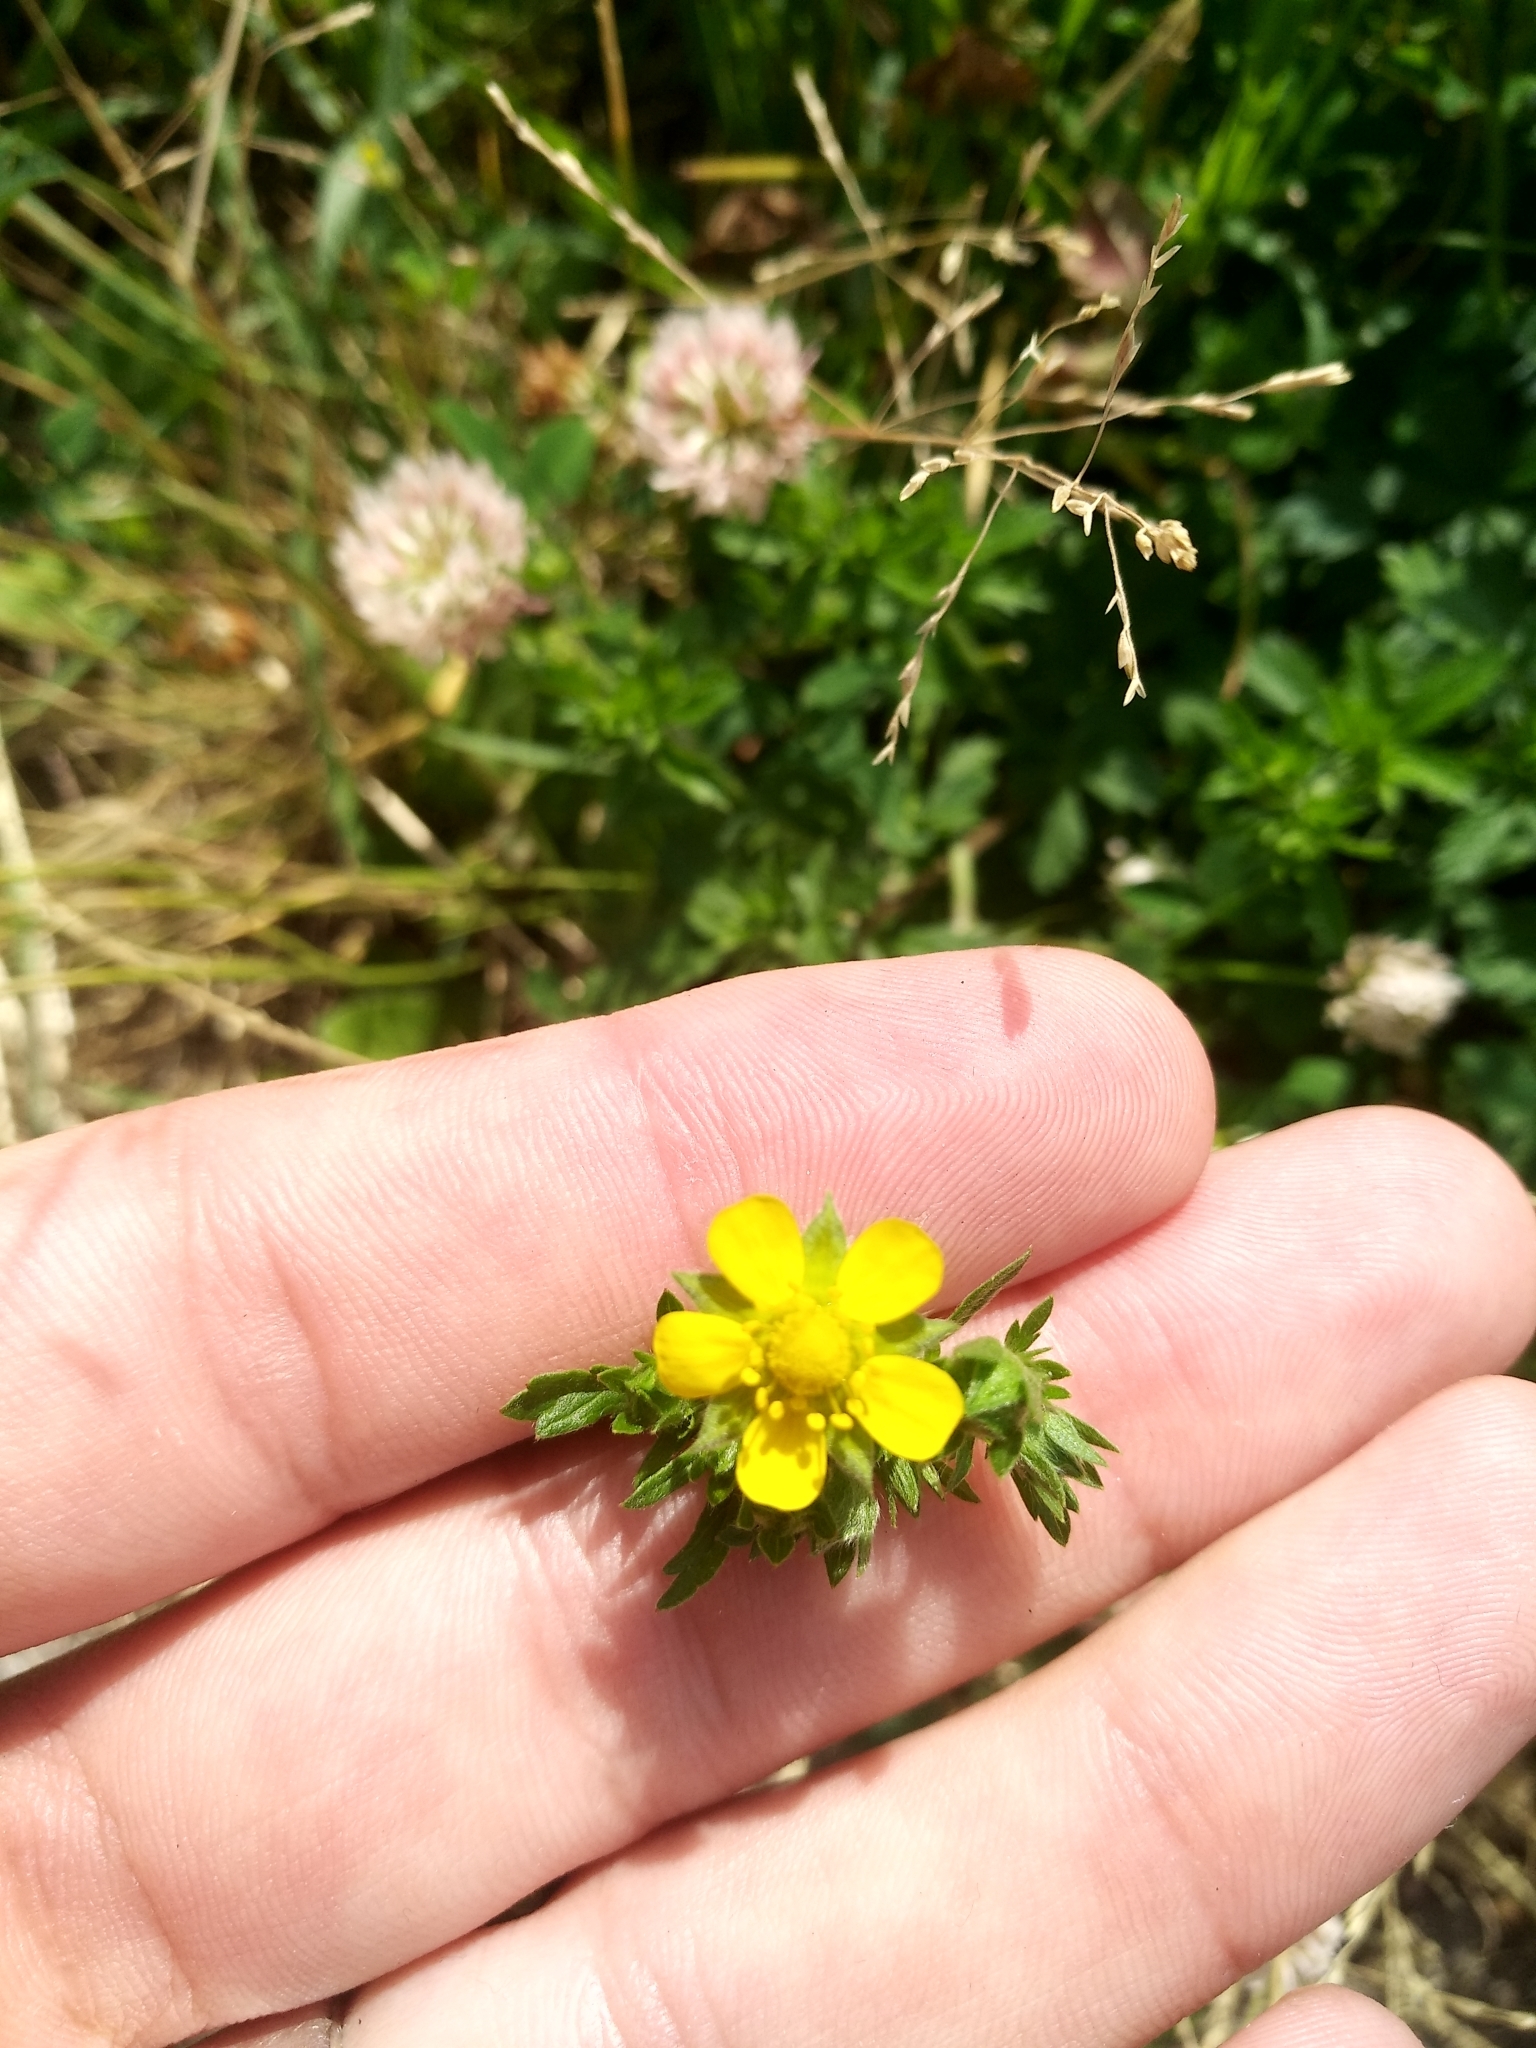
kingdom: Plantae
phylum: Tracheophyta
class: Magnoliopsida
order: Rosales
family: Rosaceae
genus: Potentilla
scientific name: Potentilla intermedia
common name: Downy cinquefoil
